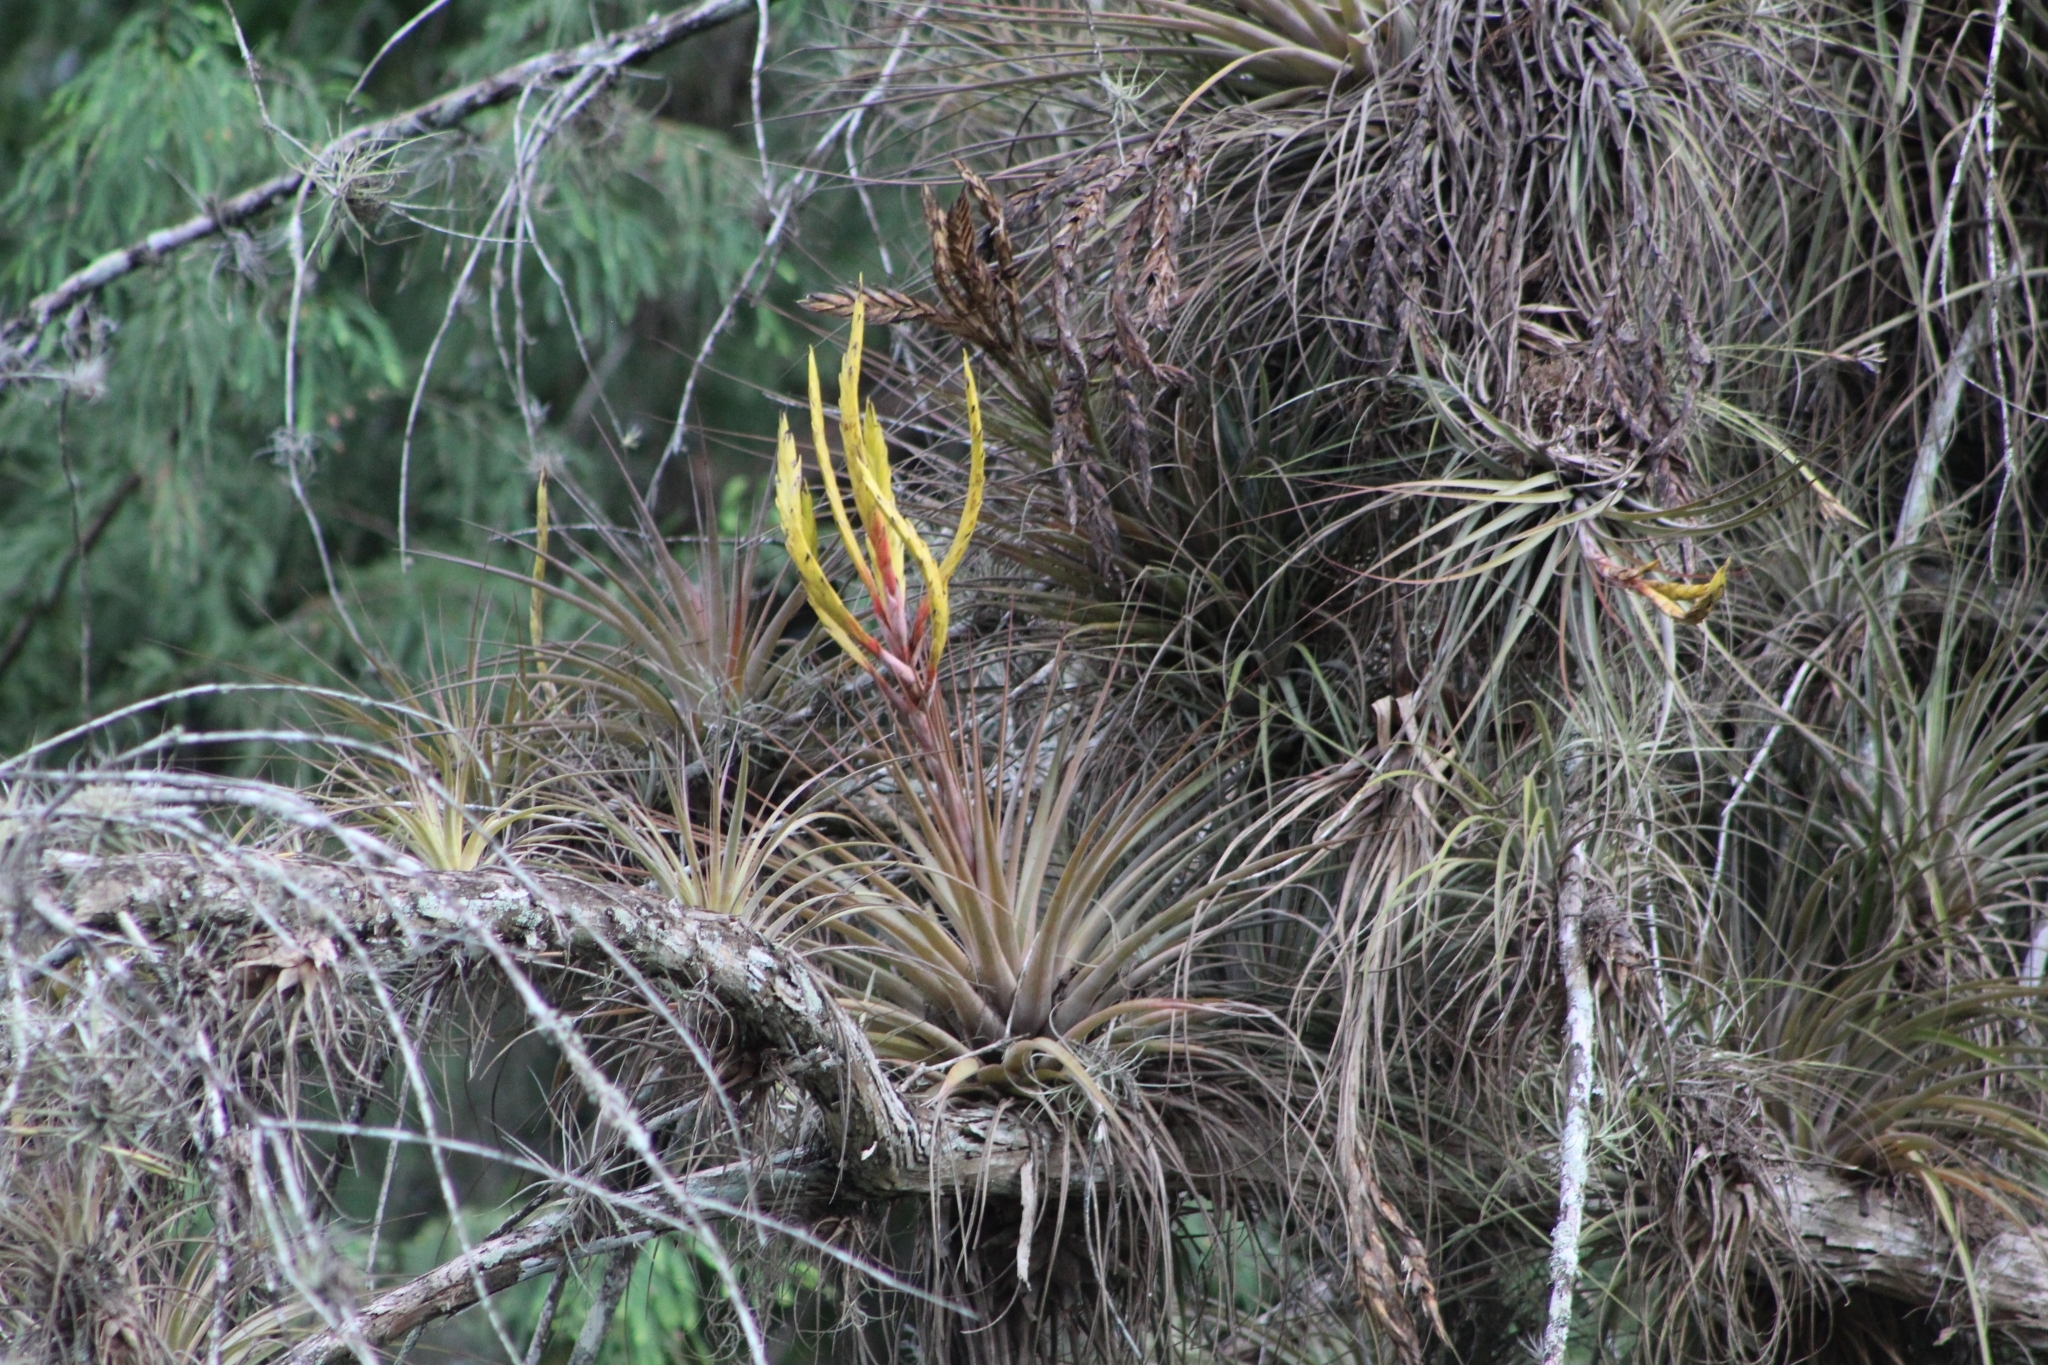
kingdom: Plantae
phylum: Tracheophyta
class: Liliopsida
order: Poales
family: Bromeliaceae
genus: Tillandsia
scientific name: Tillandsia inopinata
